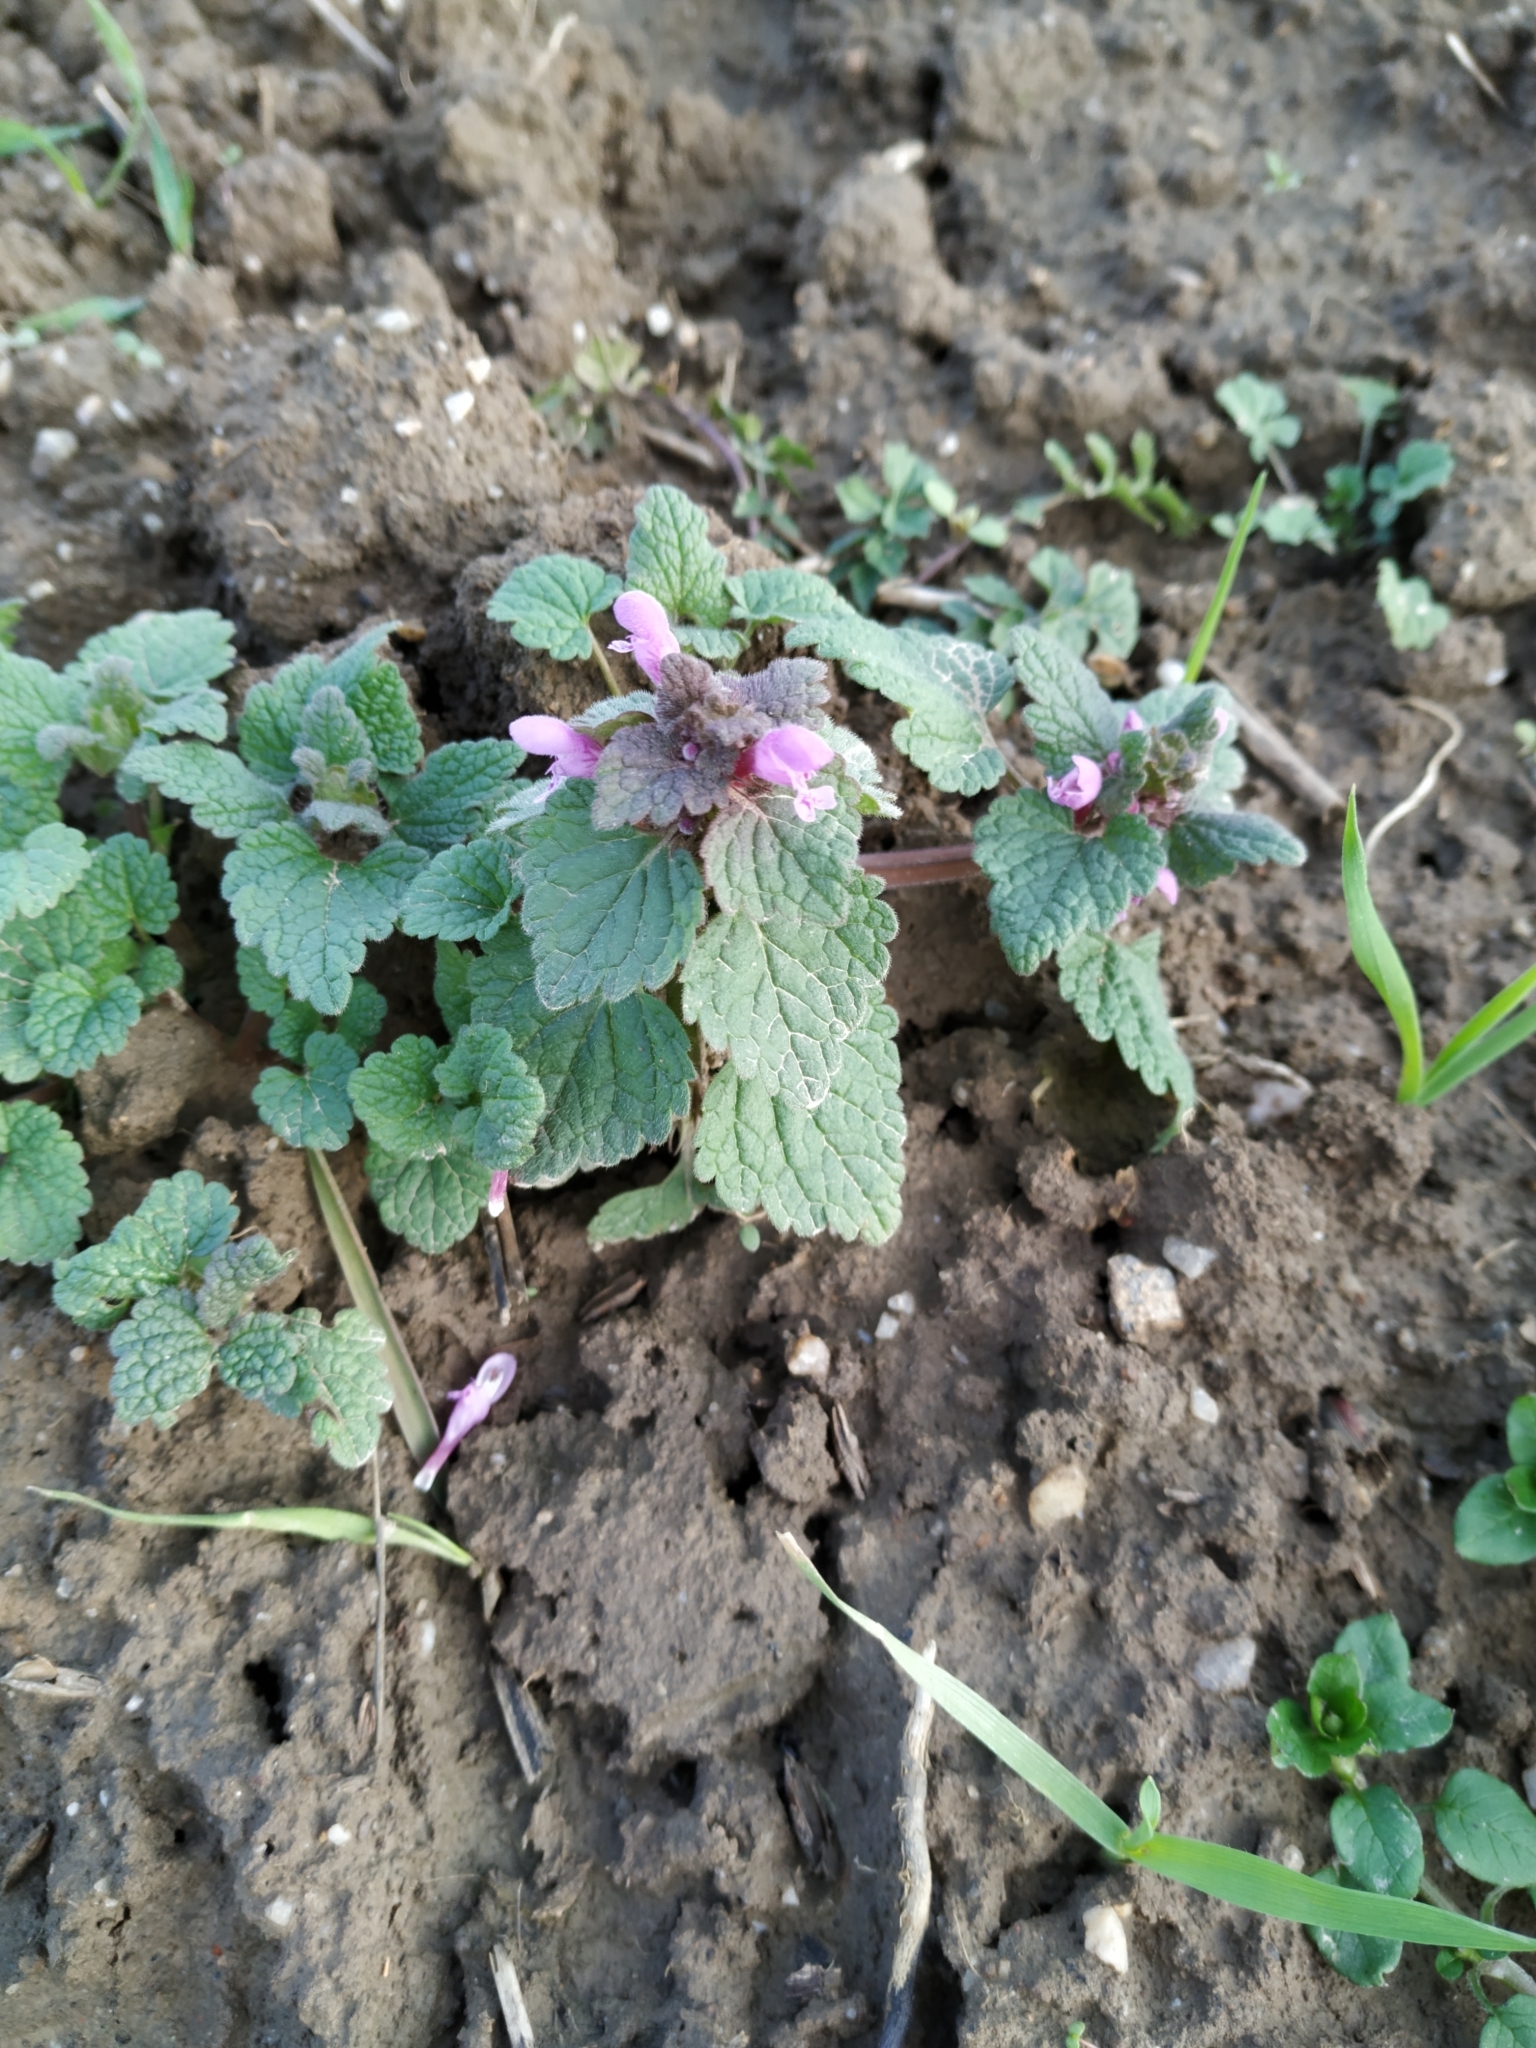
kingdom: Plantae
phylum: Tracheophyta
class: Magnoliopsida
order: Lamiales
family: Lamiaceae
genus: Lamium
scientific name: Lamium purpureum
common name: Red dead-nettle
